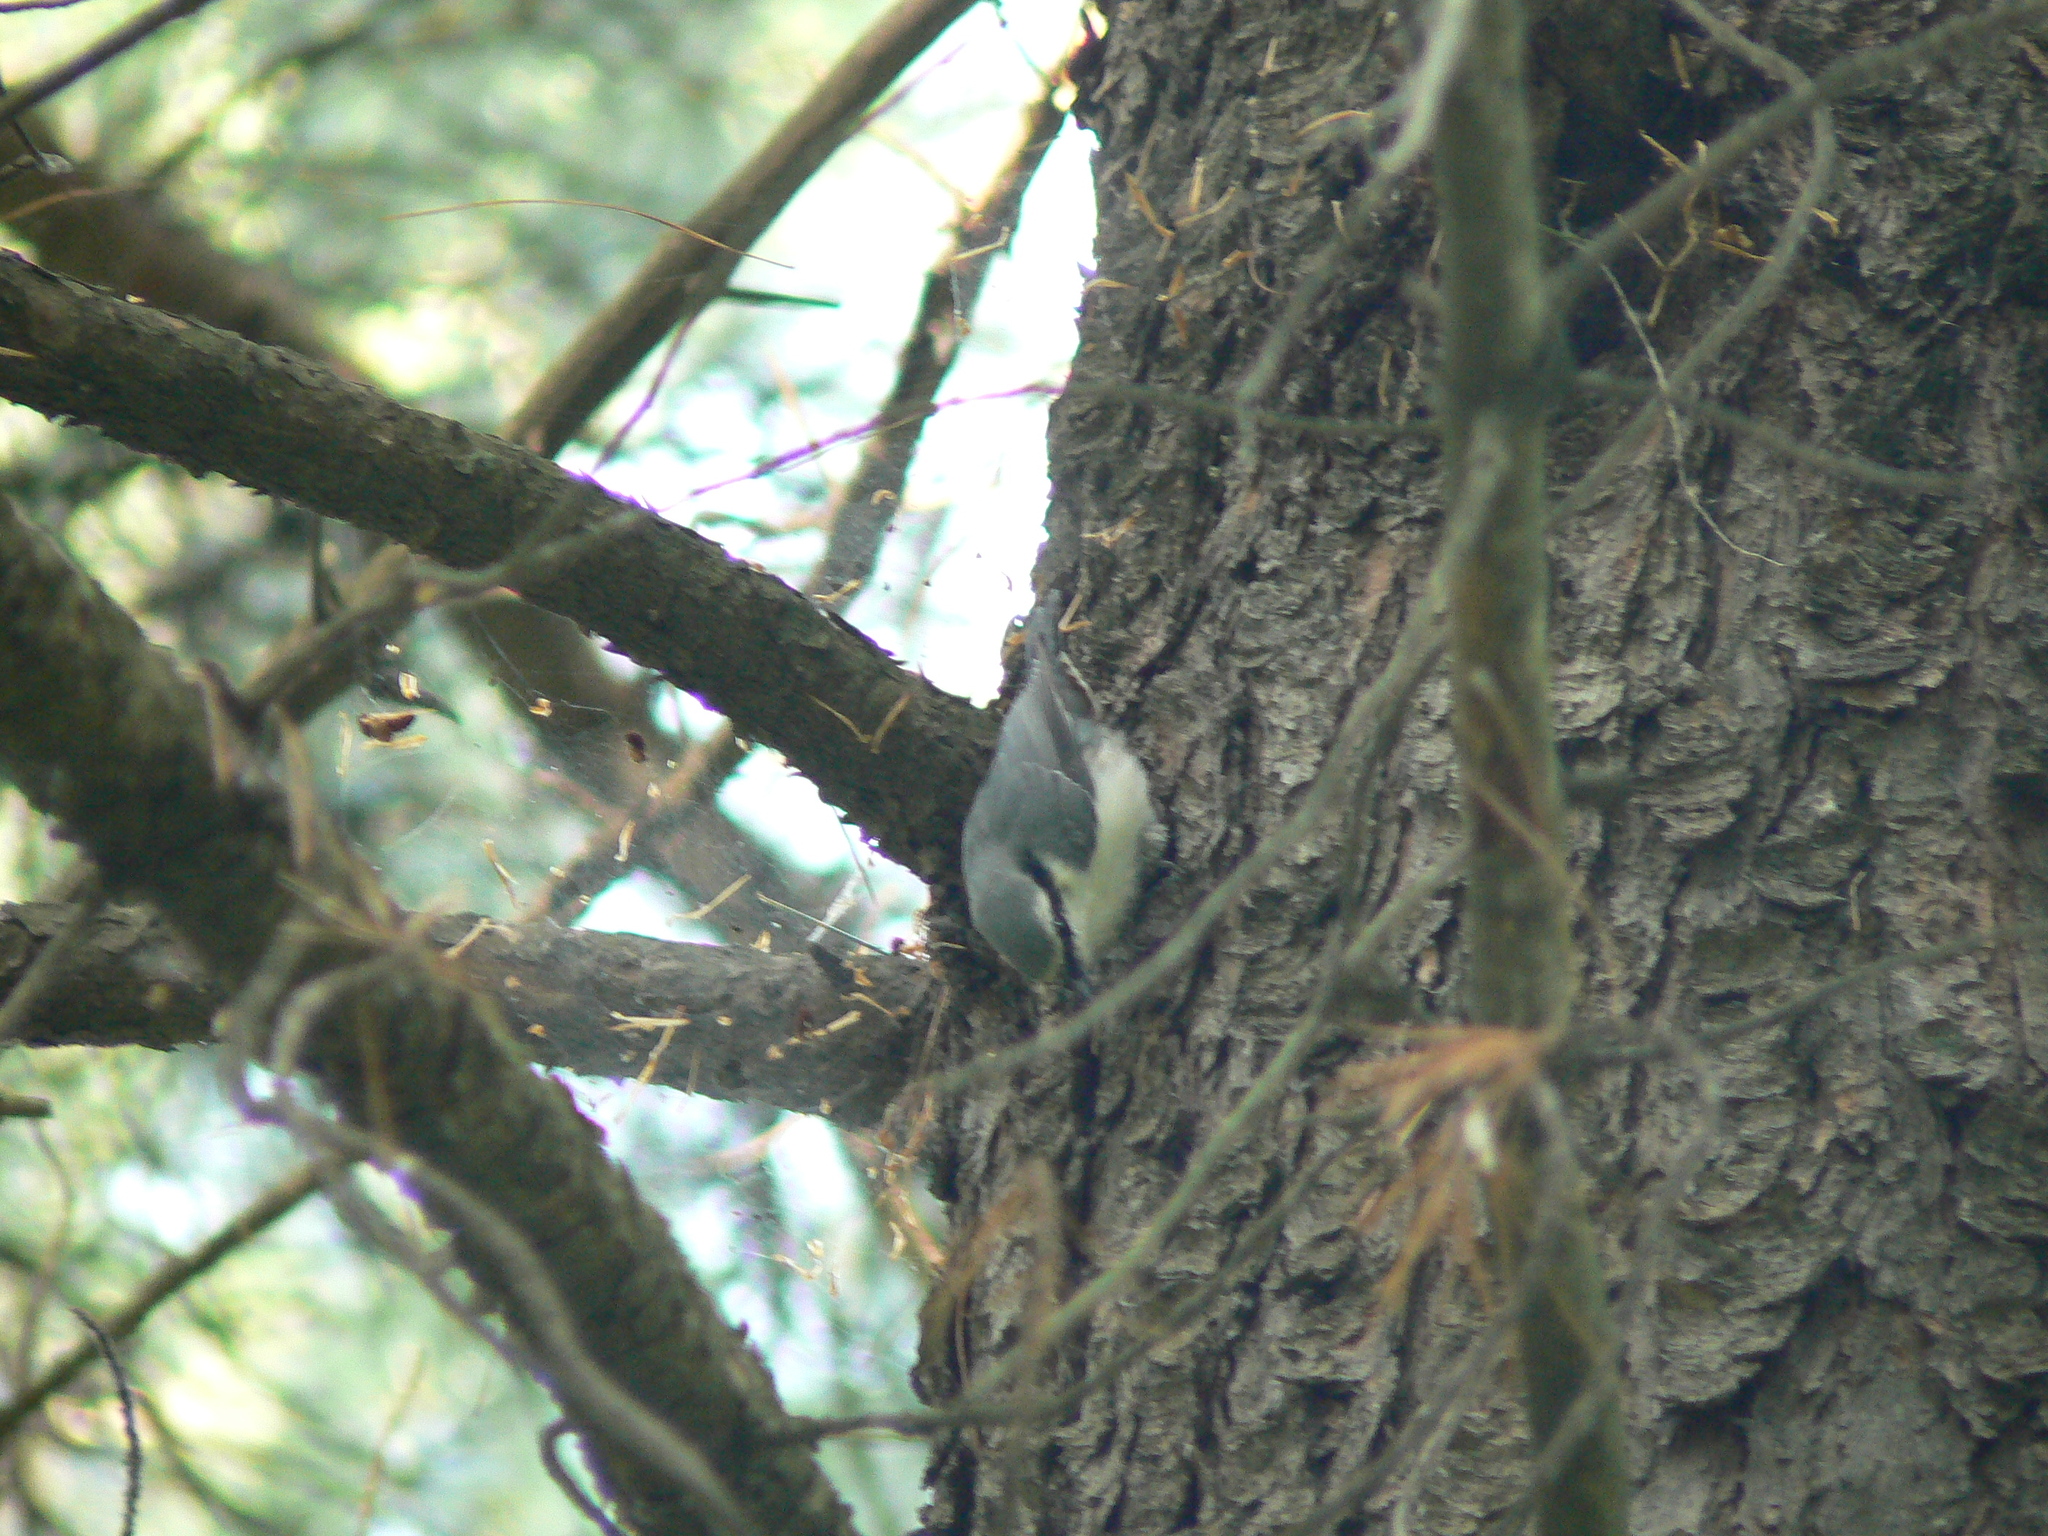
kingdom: Animalia
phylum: Chordata
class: Aves
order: Passeriformes
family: Sittidae
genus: Sitta
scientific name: Sitta europaea
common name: Eurasian nuthatch
